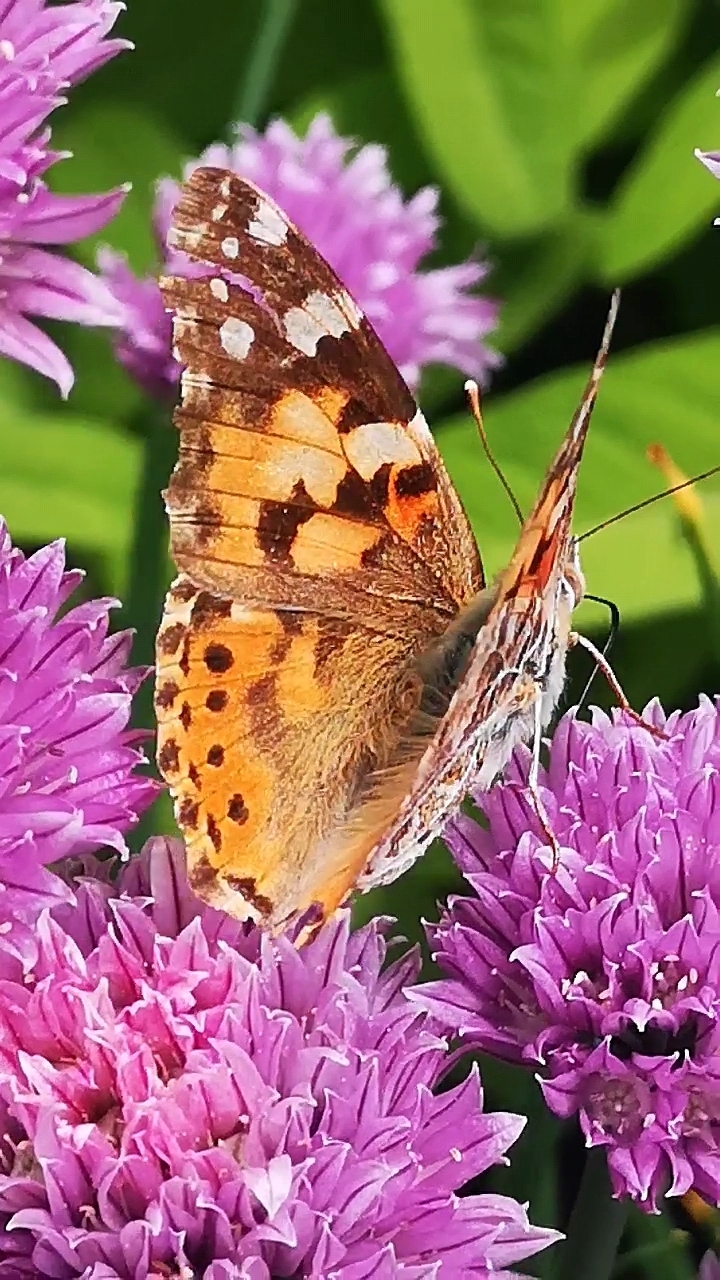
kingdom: Animalia
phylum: Arthropoda
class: Insecta
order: Lepidoptera
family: Nymphalidae
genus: Vanessa
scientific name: Vanessa cardui
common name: Painted lady
